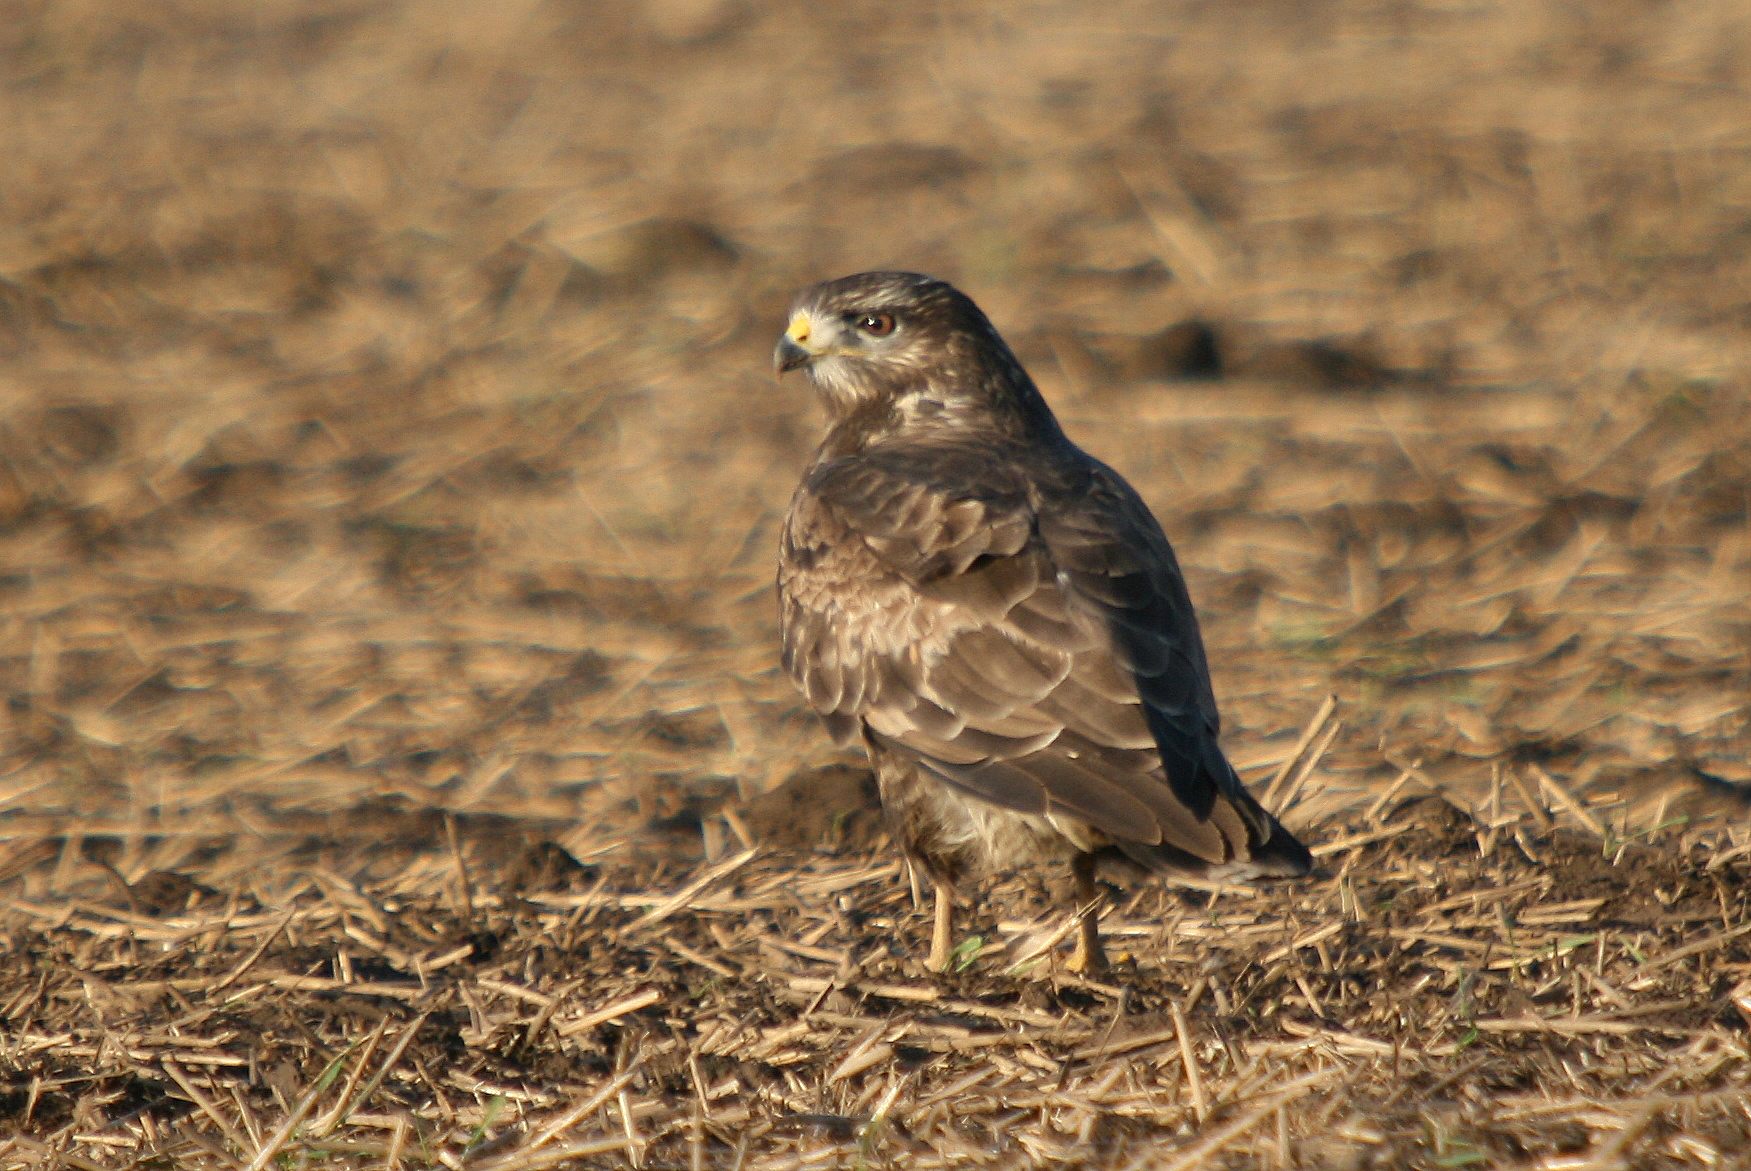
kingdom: Animalia
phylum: Chordata
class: Aves
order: Accipitriformes
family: Accipitridae
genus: Buteo
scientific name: Buteo buteo
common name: Common buzzard
